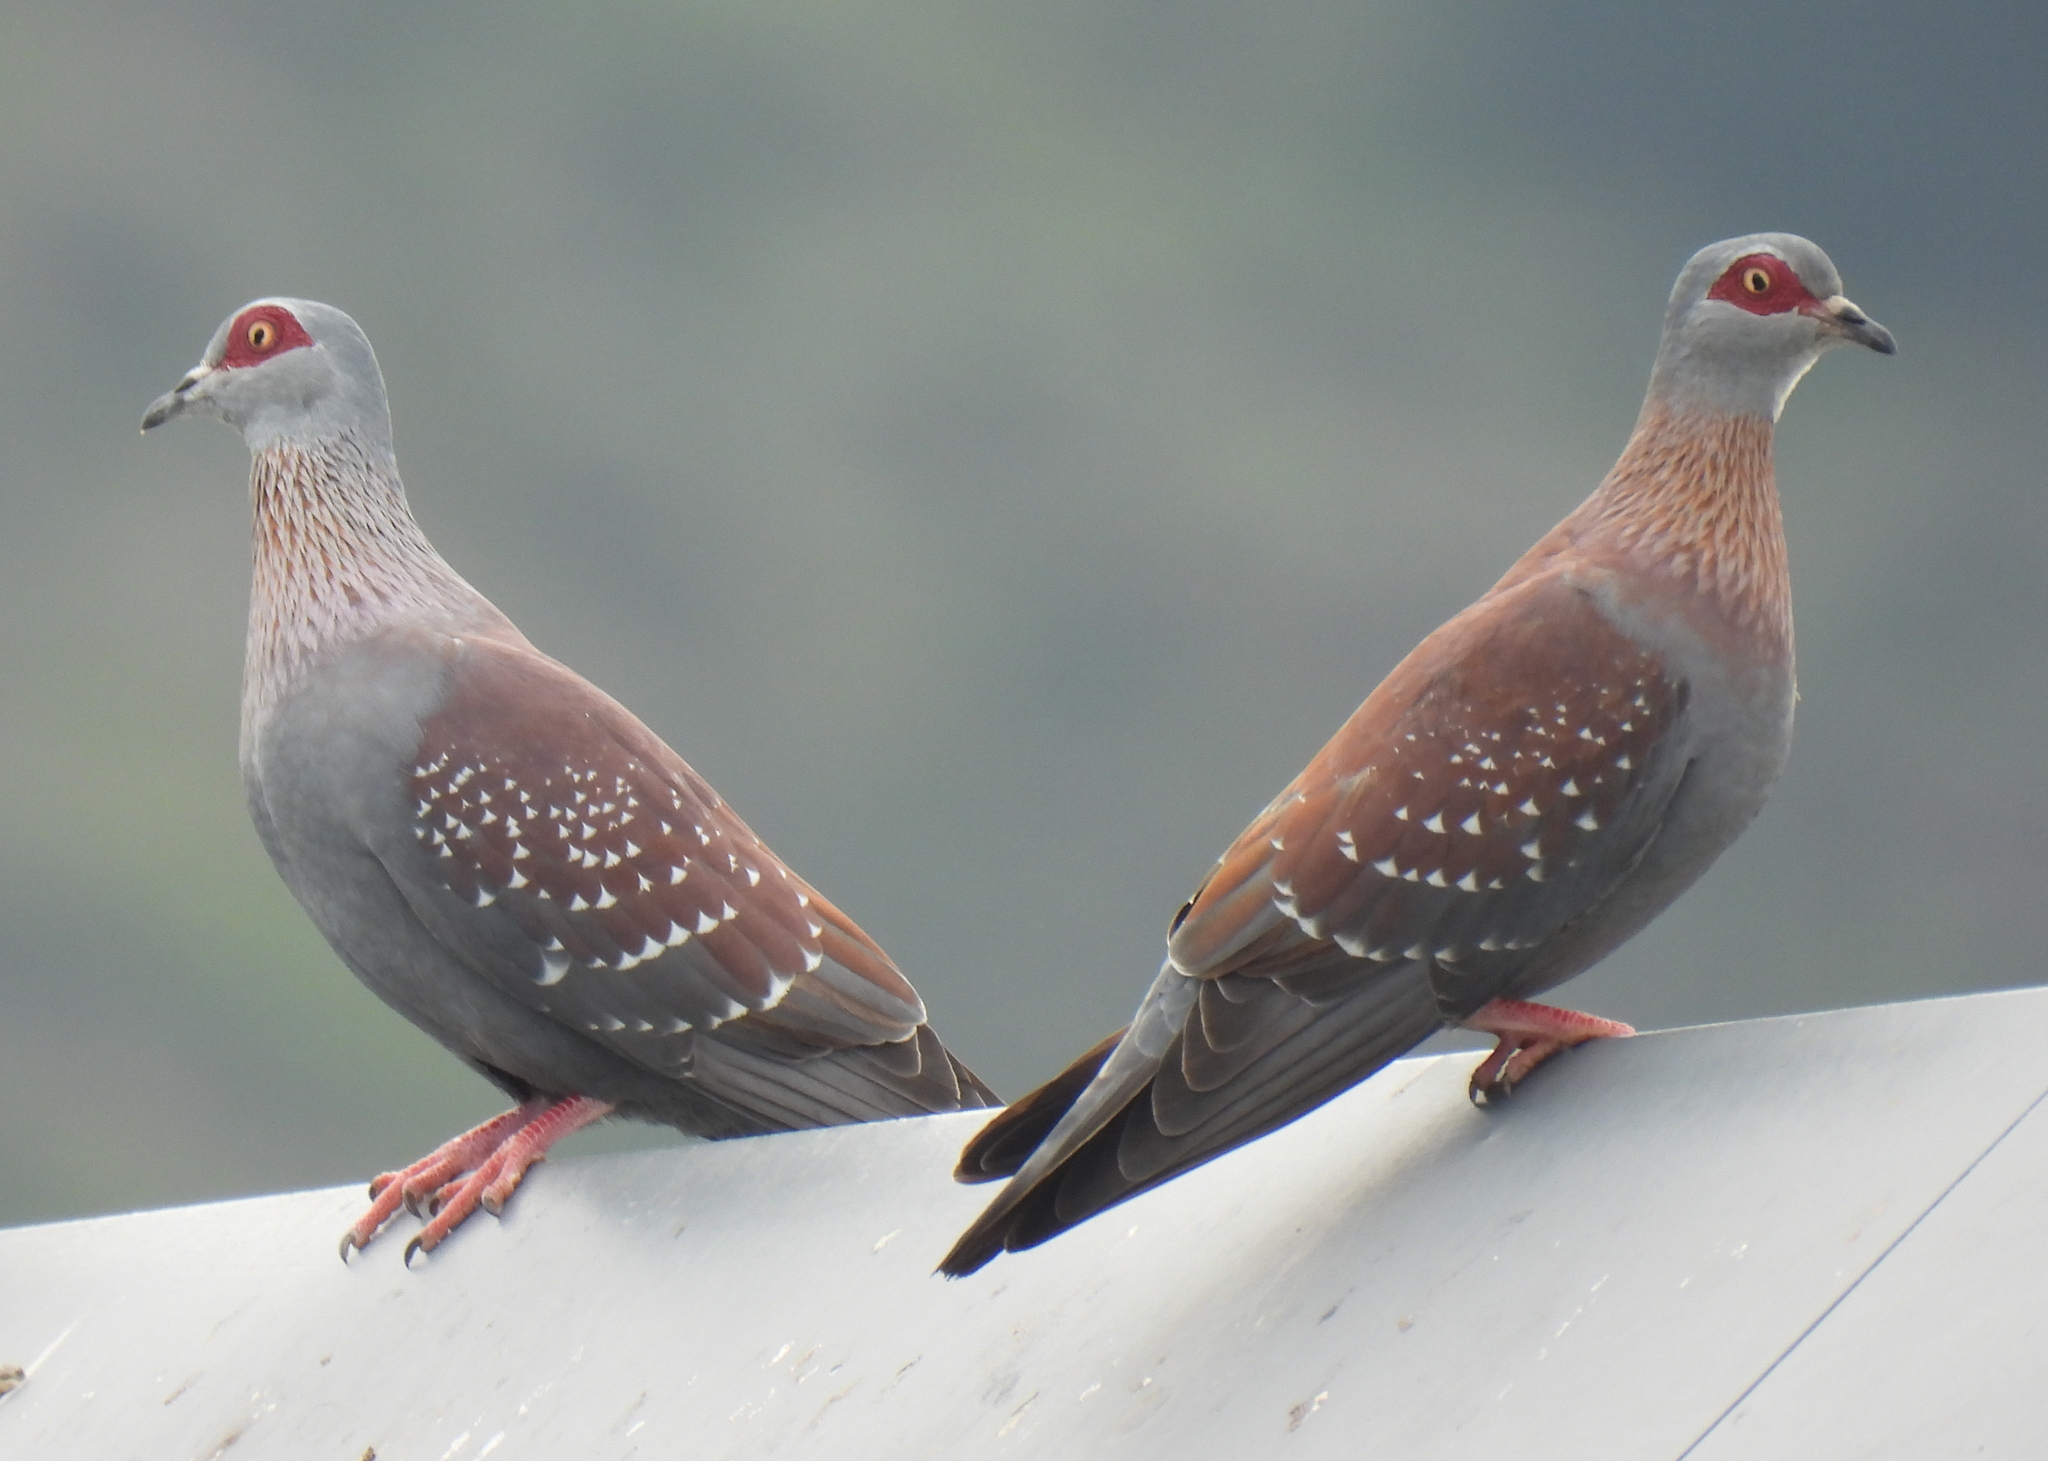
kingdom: Animalia
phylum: Chordata
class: Aves
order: Columbiformes
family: Columbidae
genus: Columba
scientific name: Columba guinea
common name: Speckled pigeon
